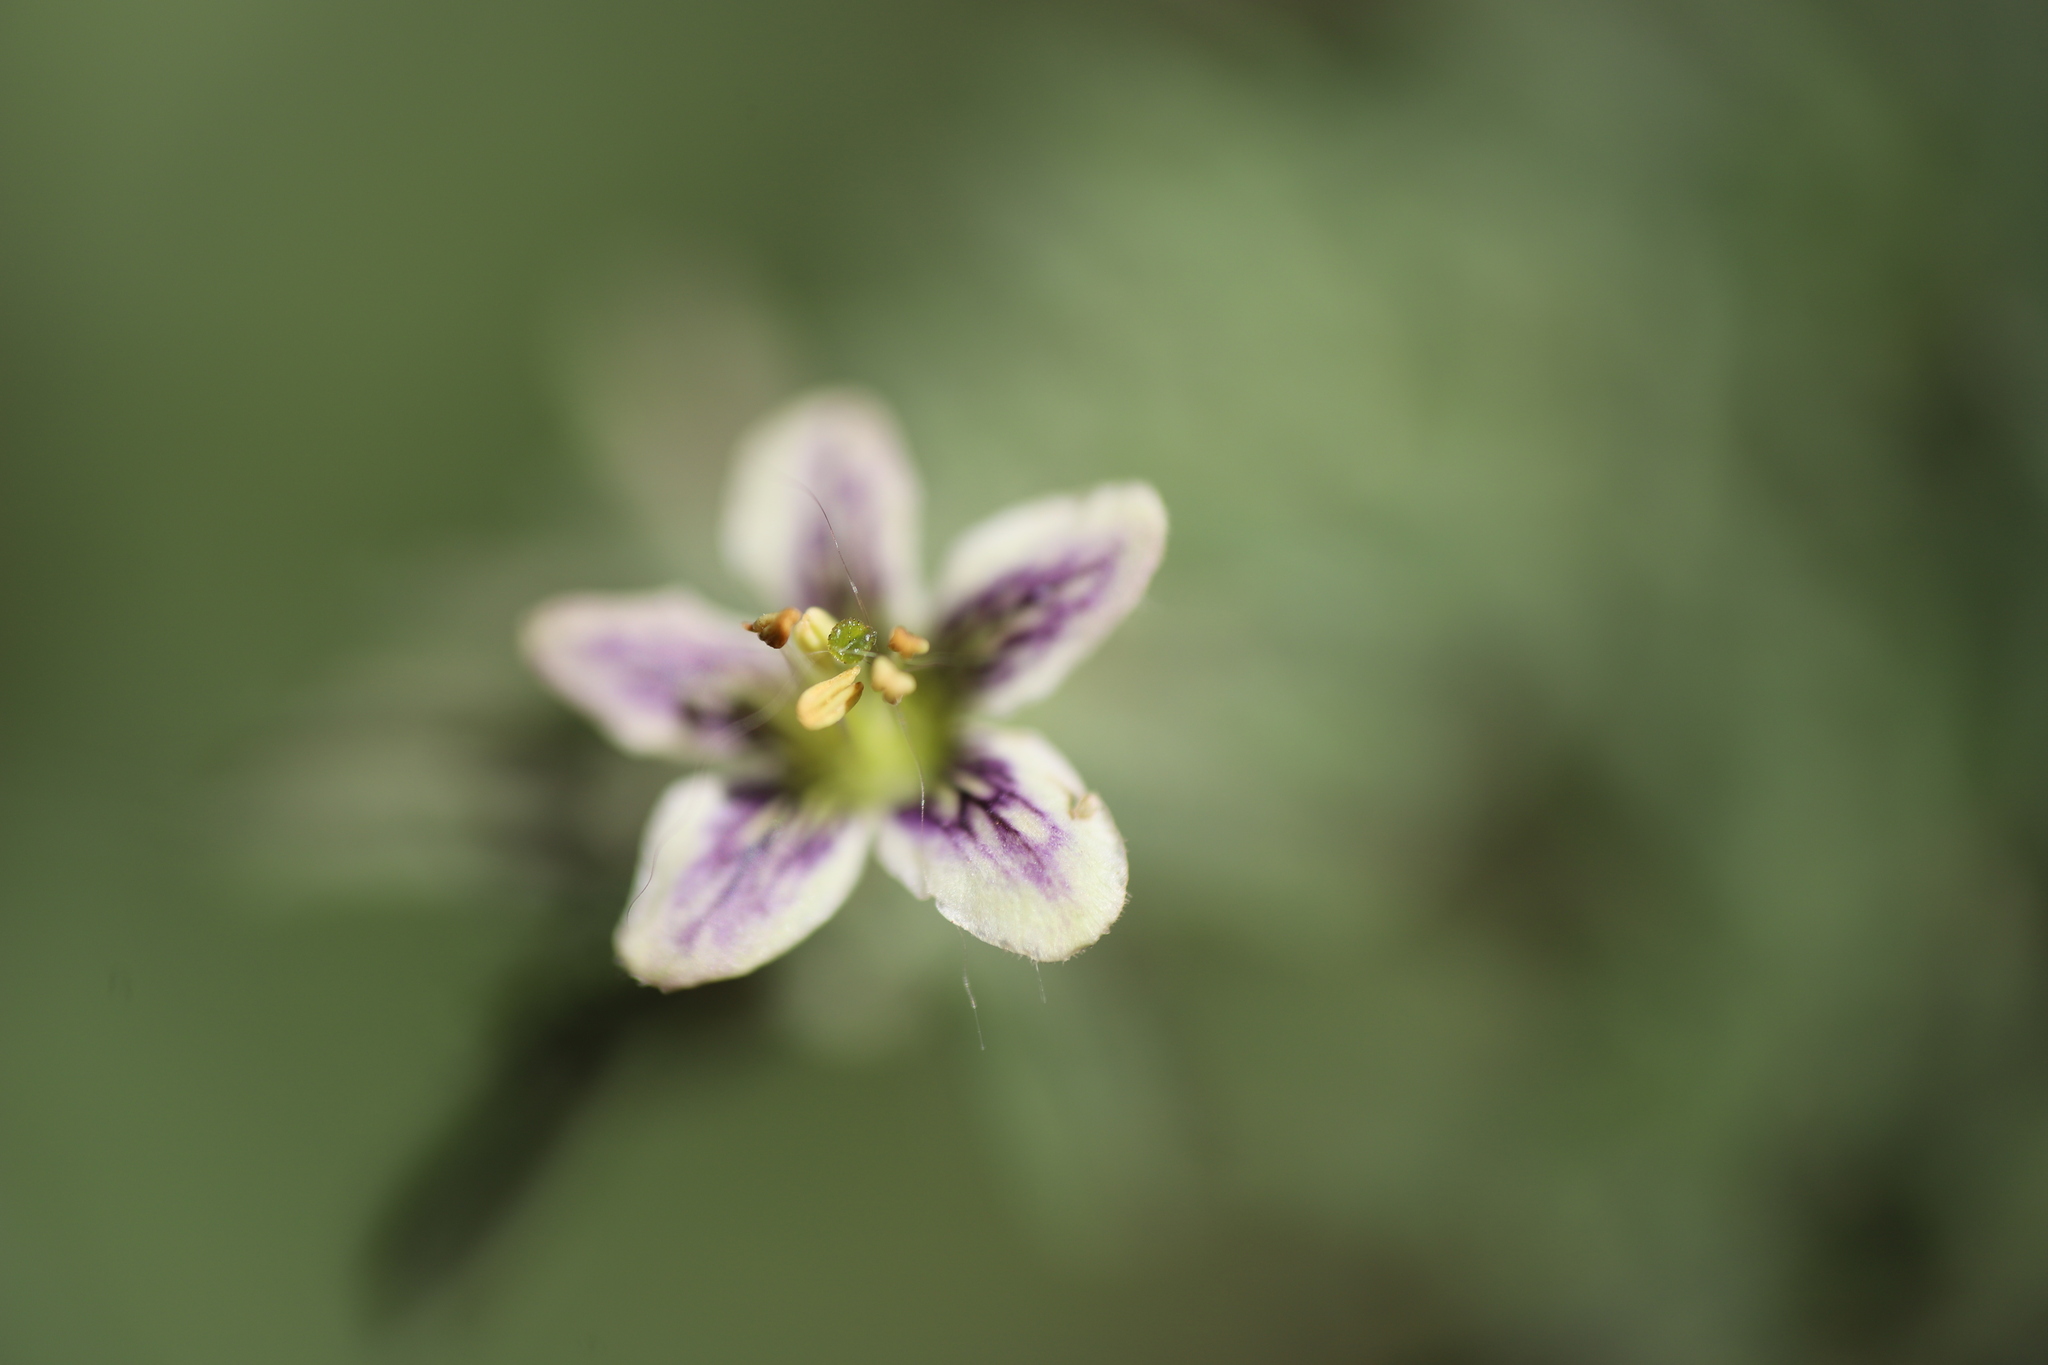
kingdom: Plantae
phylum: Tracheophyta
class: Magnoliopsida
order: Solanales
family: Solanaceae
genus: Lycium
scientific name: Lycium chilense
